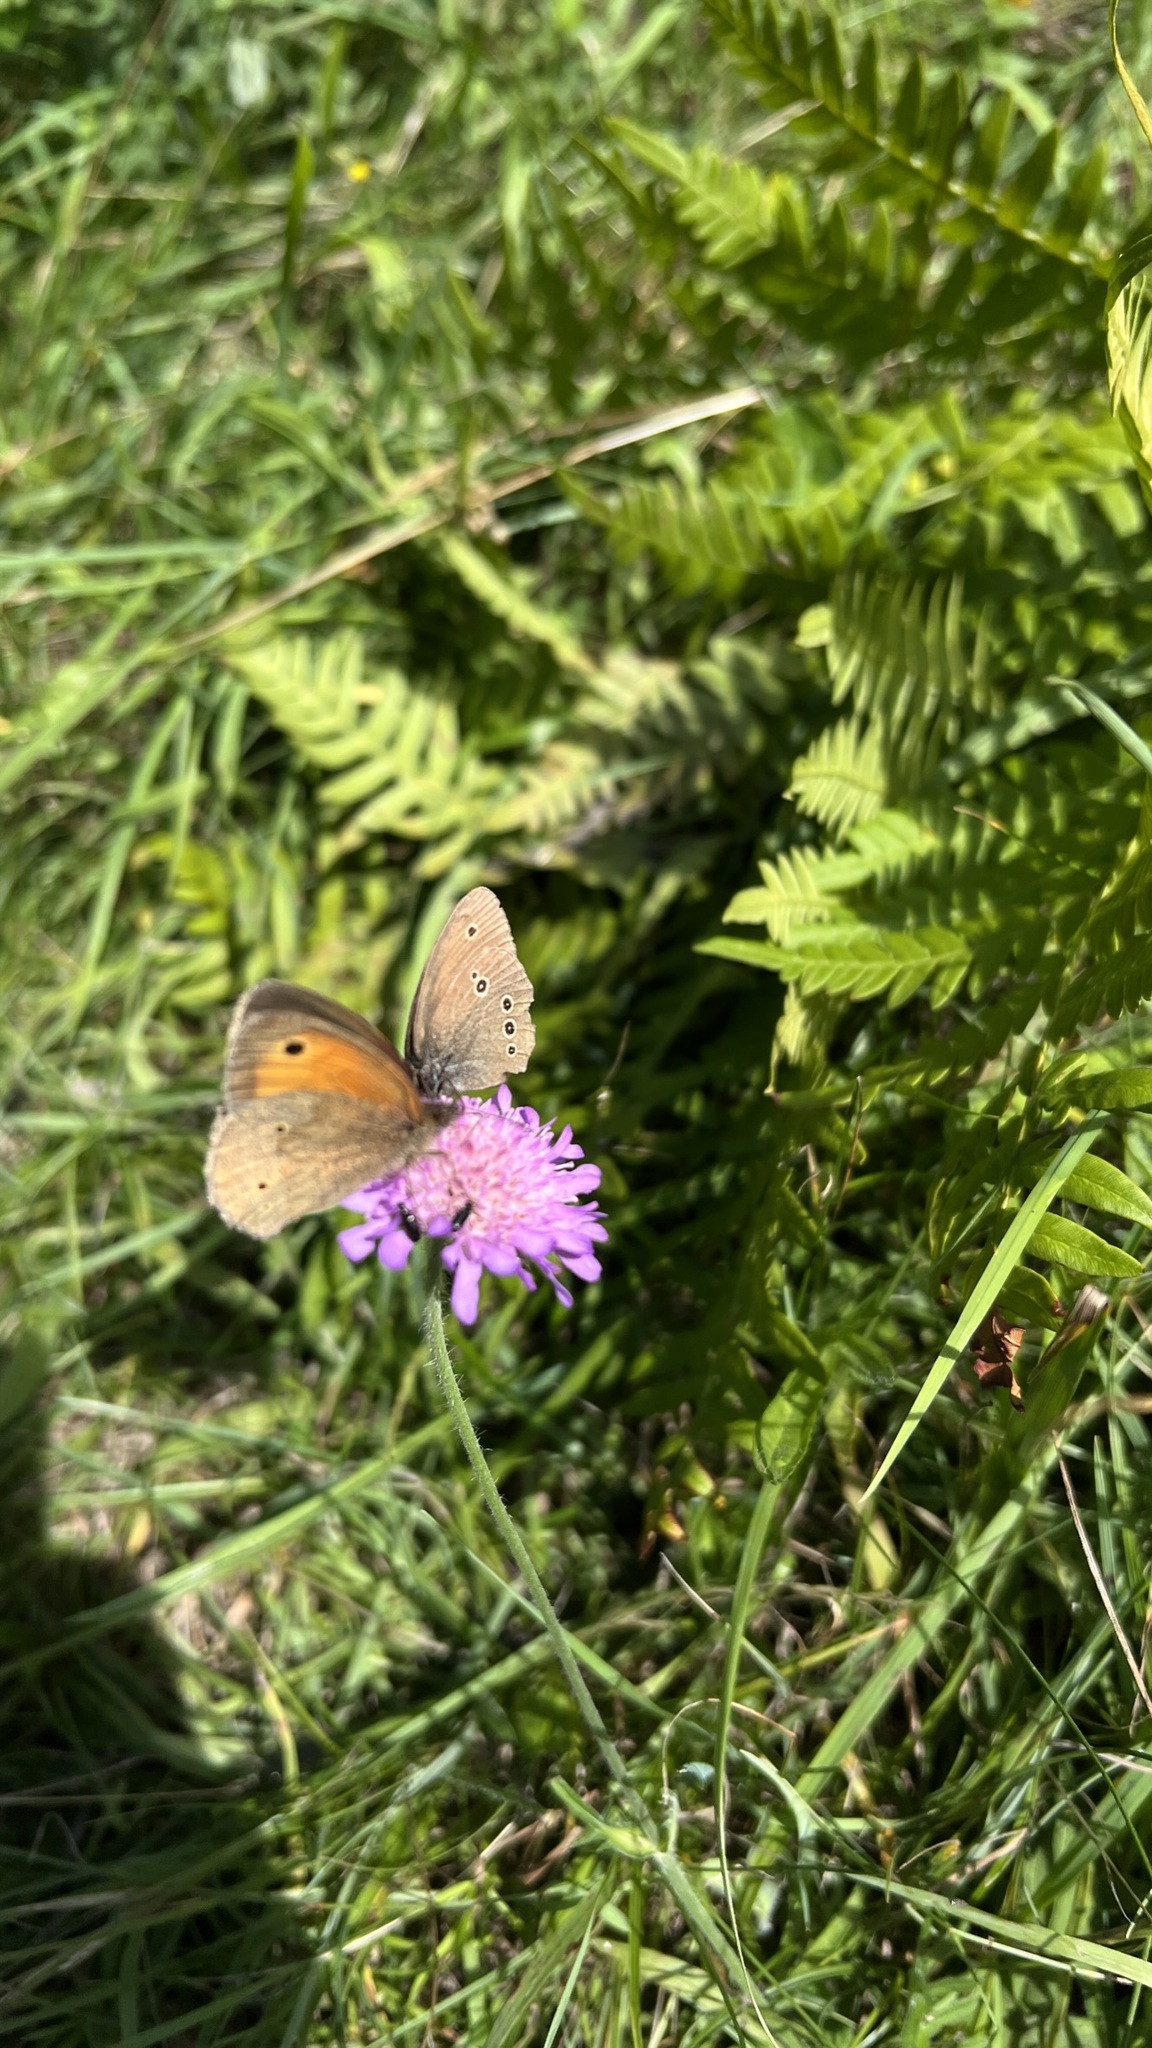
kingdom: Animalia
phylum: Arthropoda
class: Insecta
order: Lepidoptera
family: Nymphalidae
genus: Aphantopus
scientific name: Aphantopus hyperantus
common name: Ringlet
